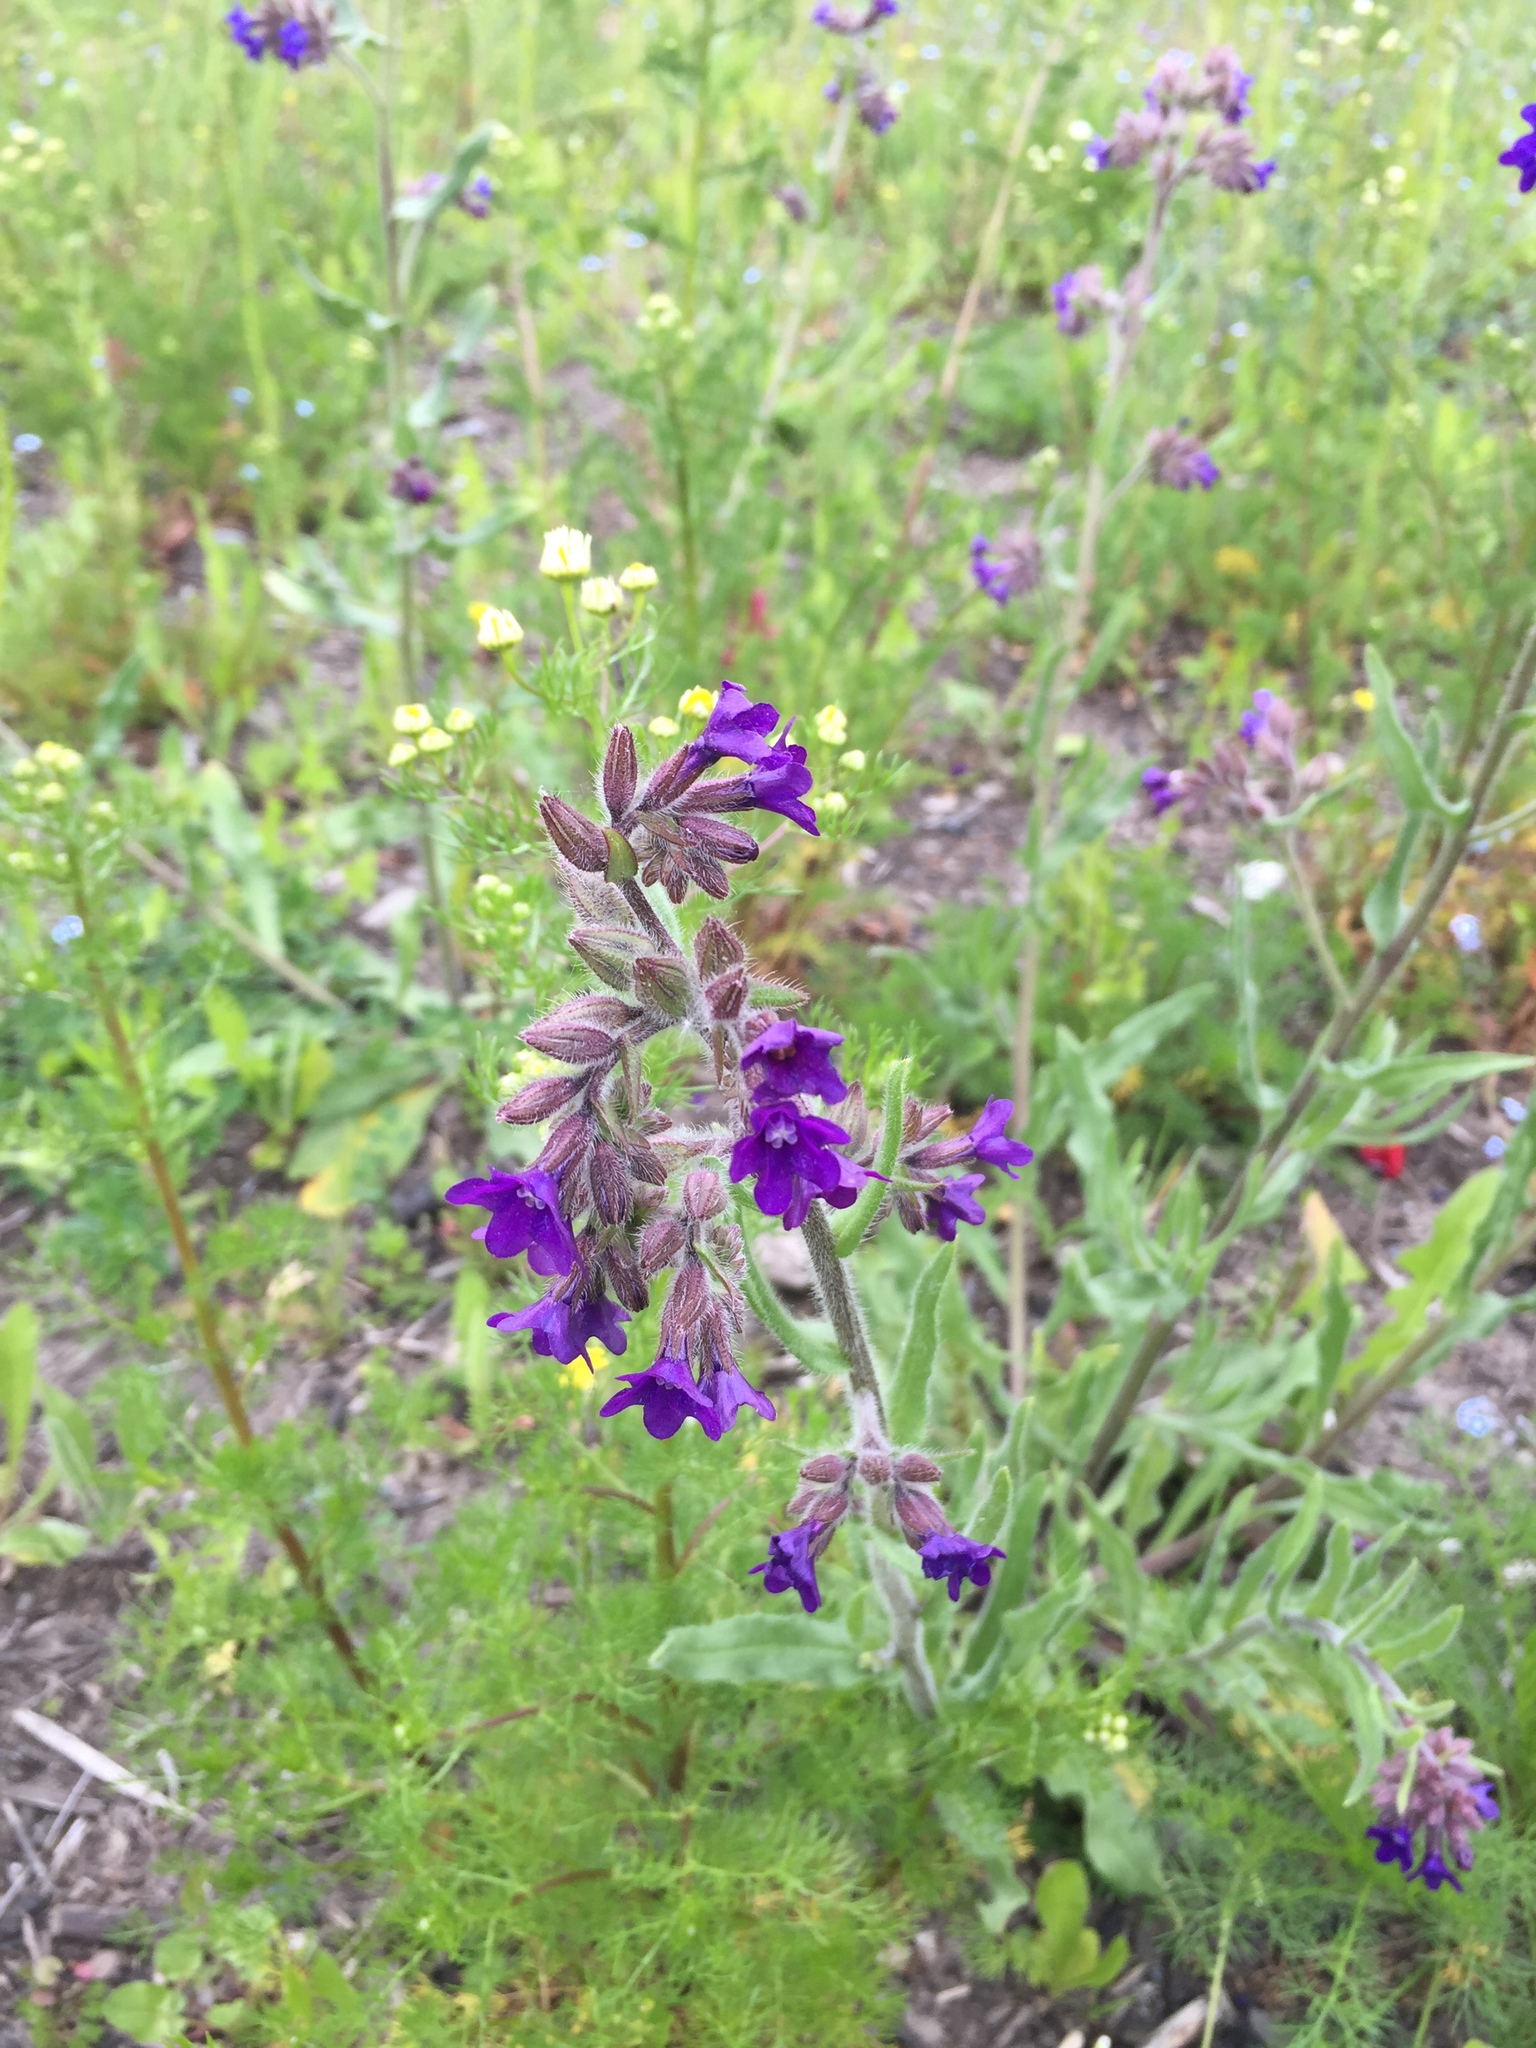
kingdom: Plantae
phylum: Tracheophyta
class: Magnoliopsida
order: Boraginales
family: Boraginaceae
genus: Anchusa
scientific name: Anchusa officinalis
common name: Alkanet
